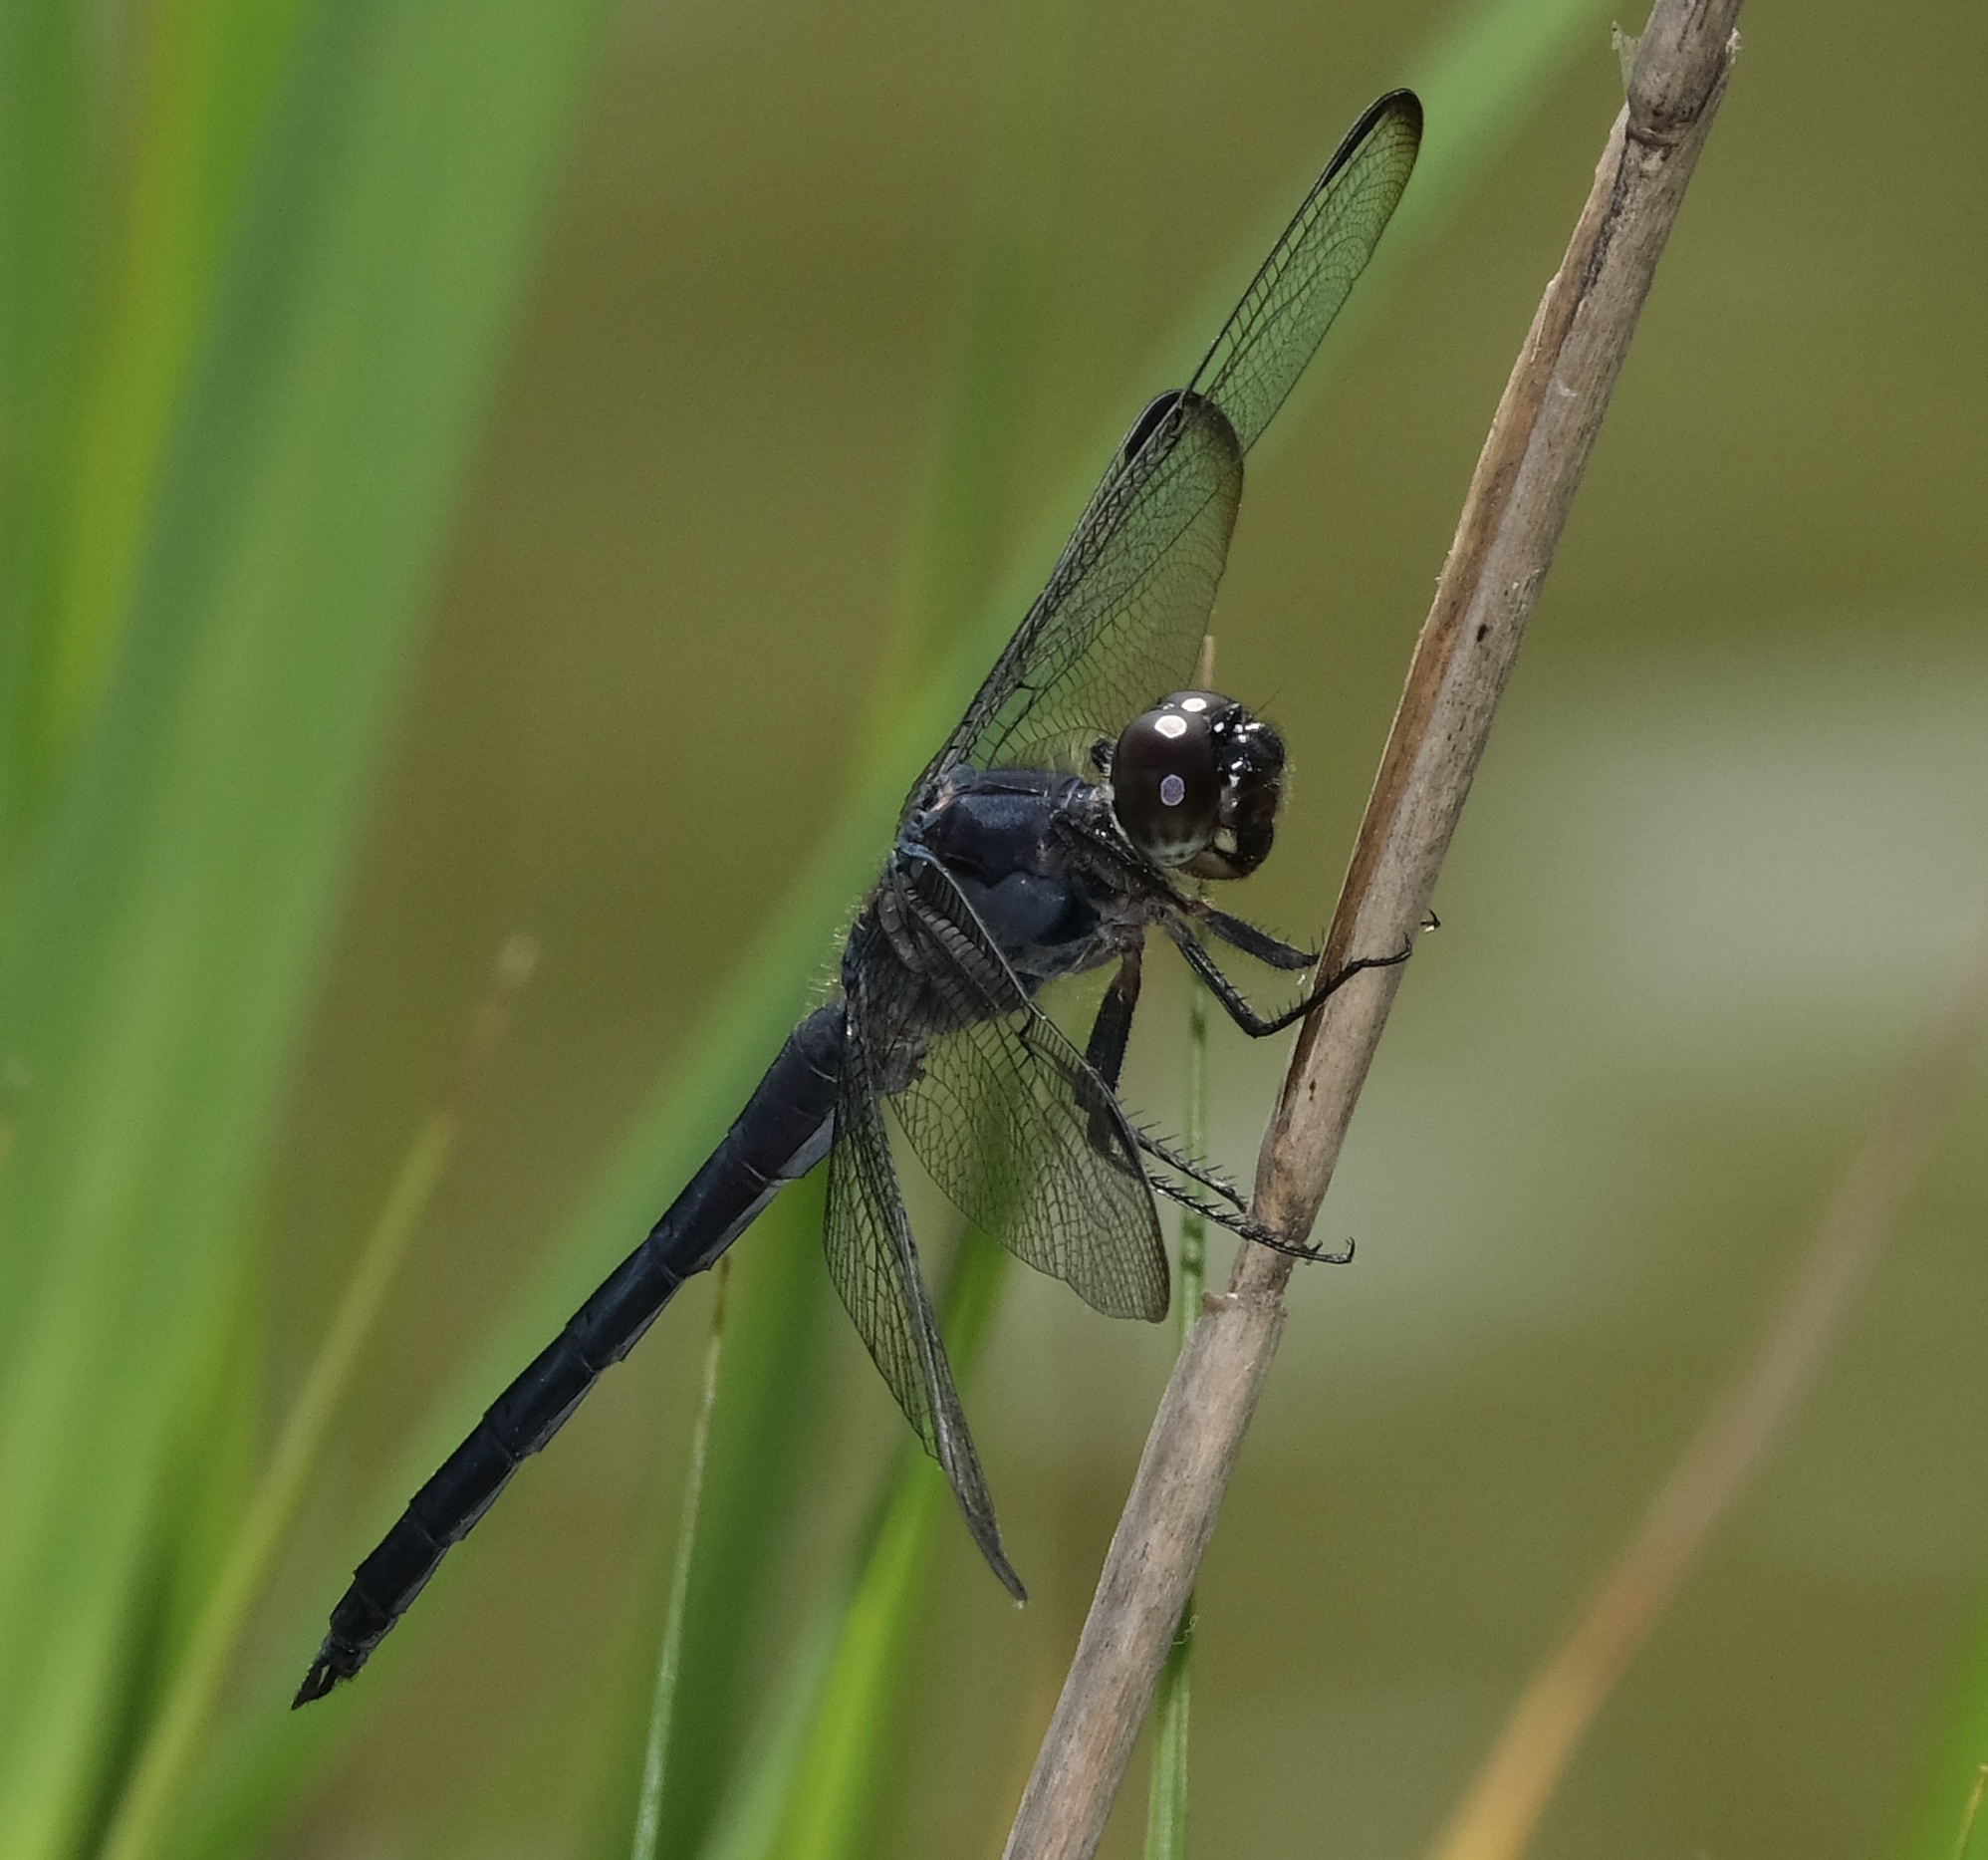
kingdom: Animalia
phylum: Arthropoda
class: Insecta
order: Odonata
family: Libellulidae
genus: Libellula
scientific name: Libellula incesta
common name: Slaty skimmer
